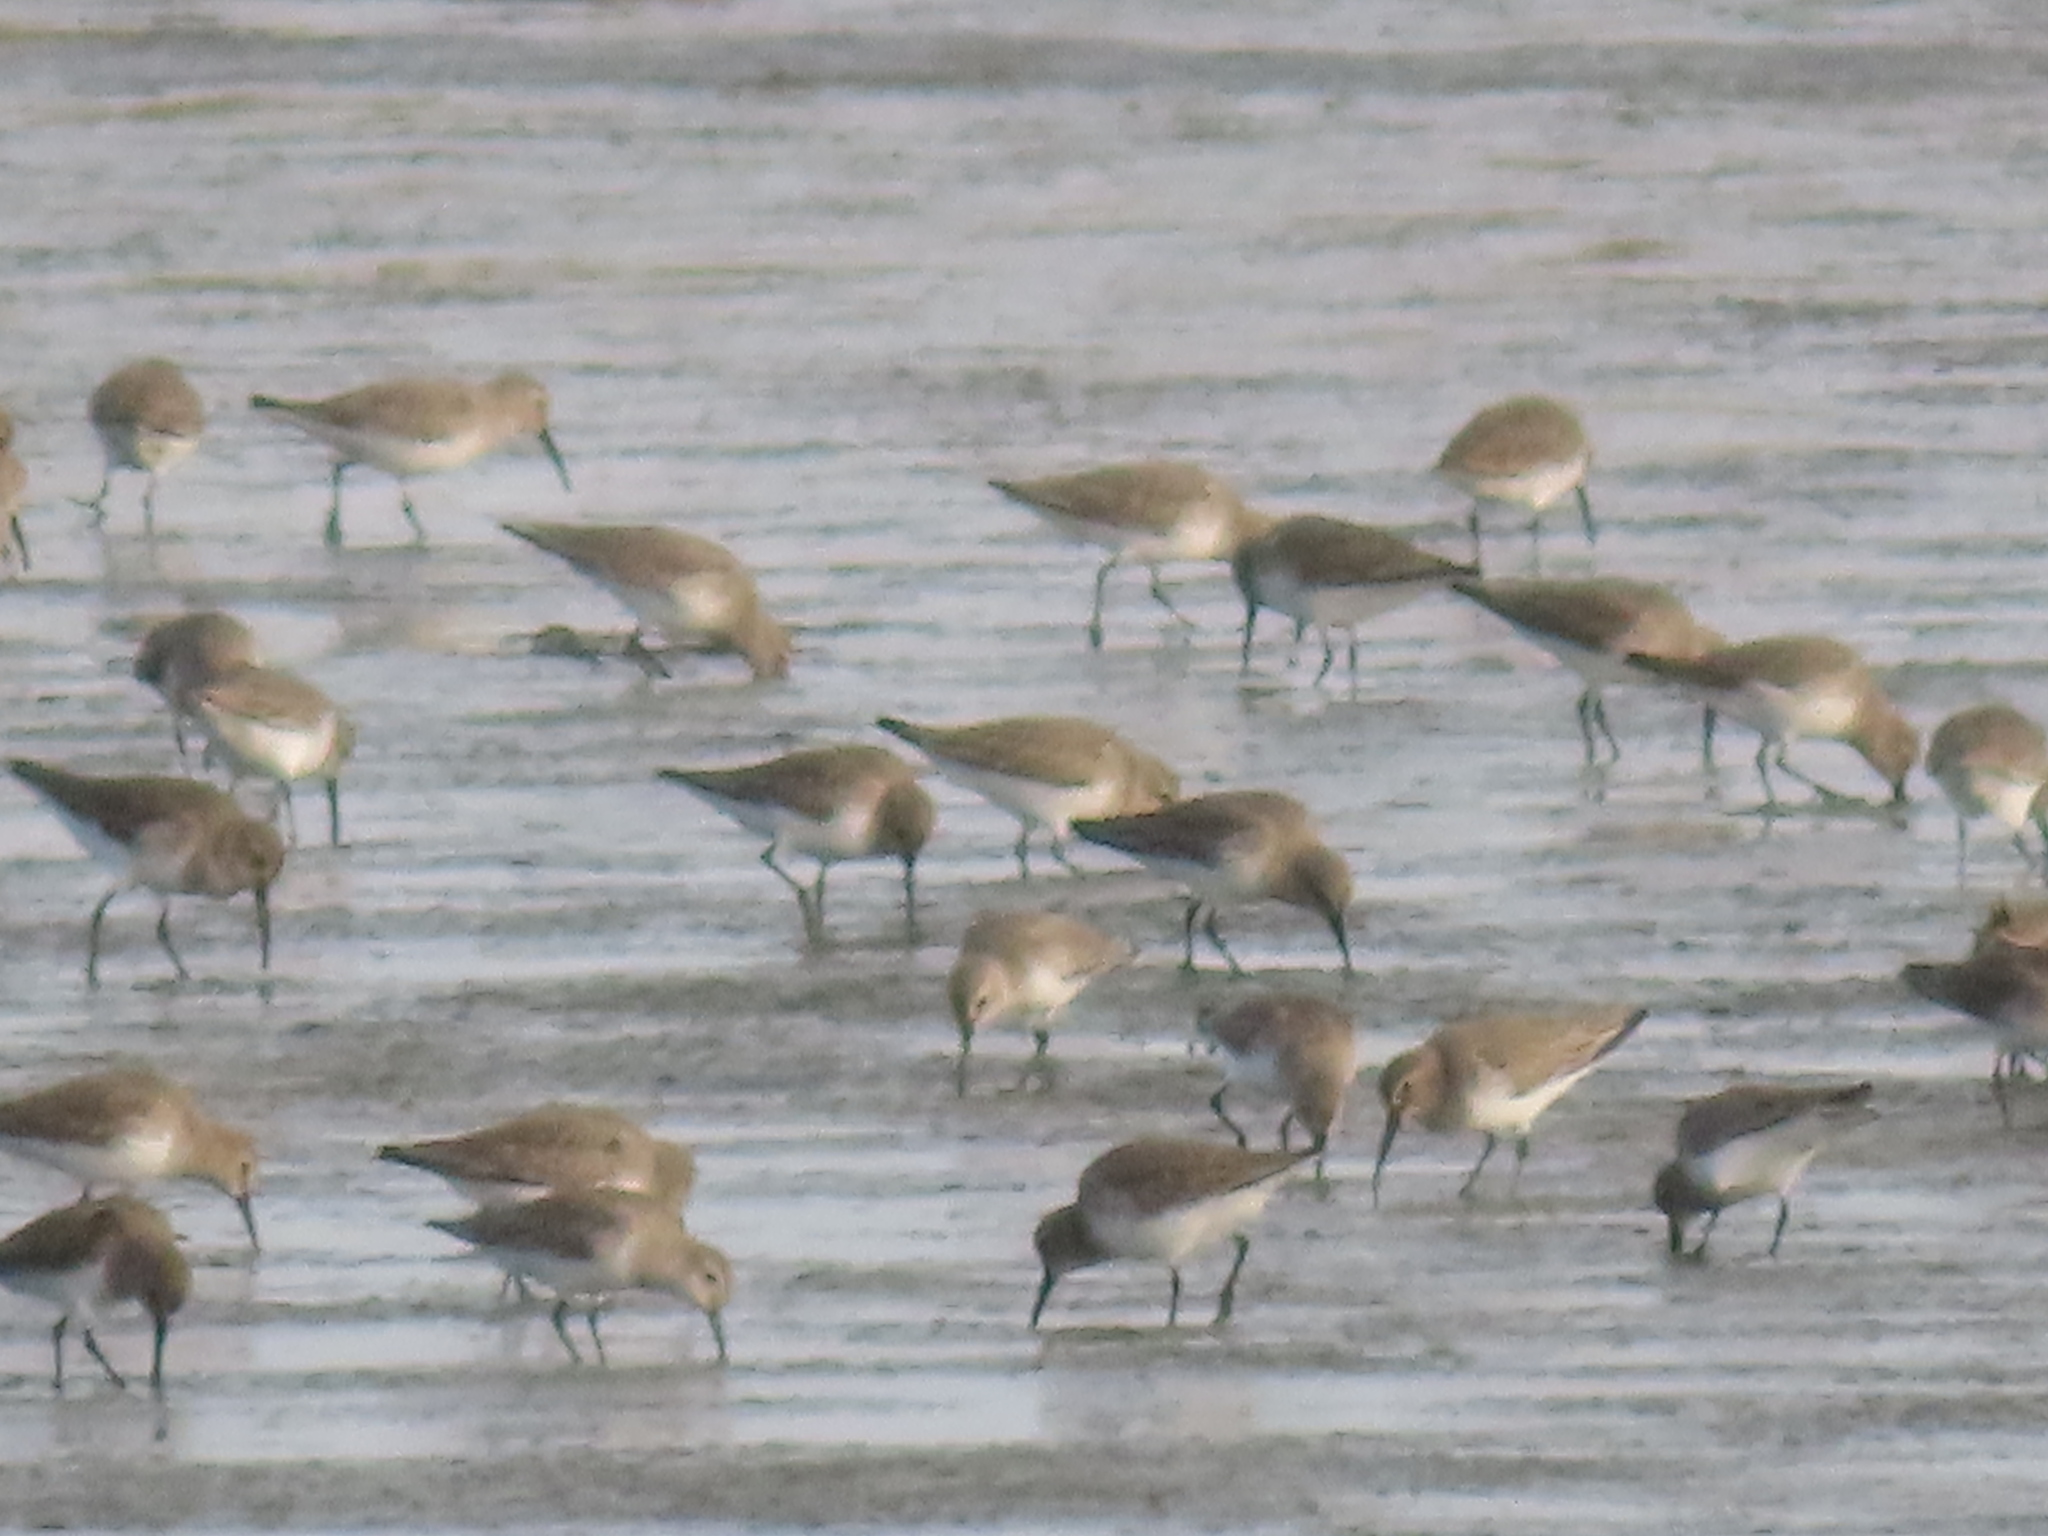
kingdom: Animalia
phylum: Chordata
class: Aves
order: Charadriiformes
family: Scolopacidae
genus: Calidris
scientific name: Calidris alpina
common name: Dunlin
